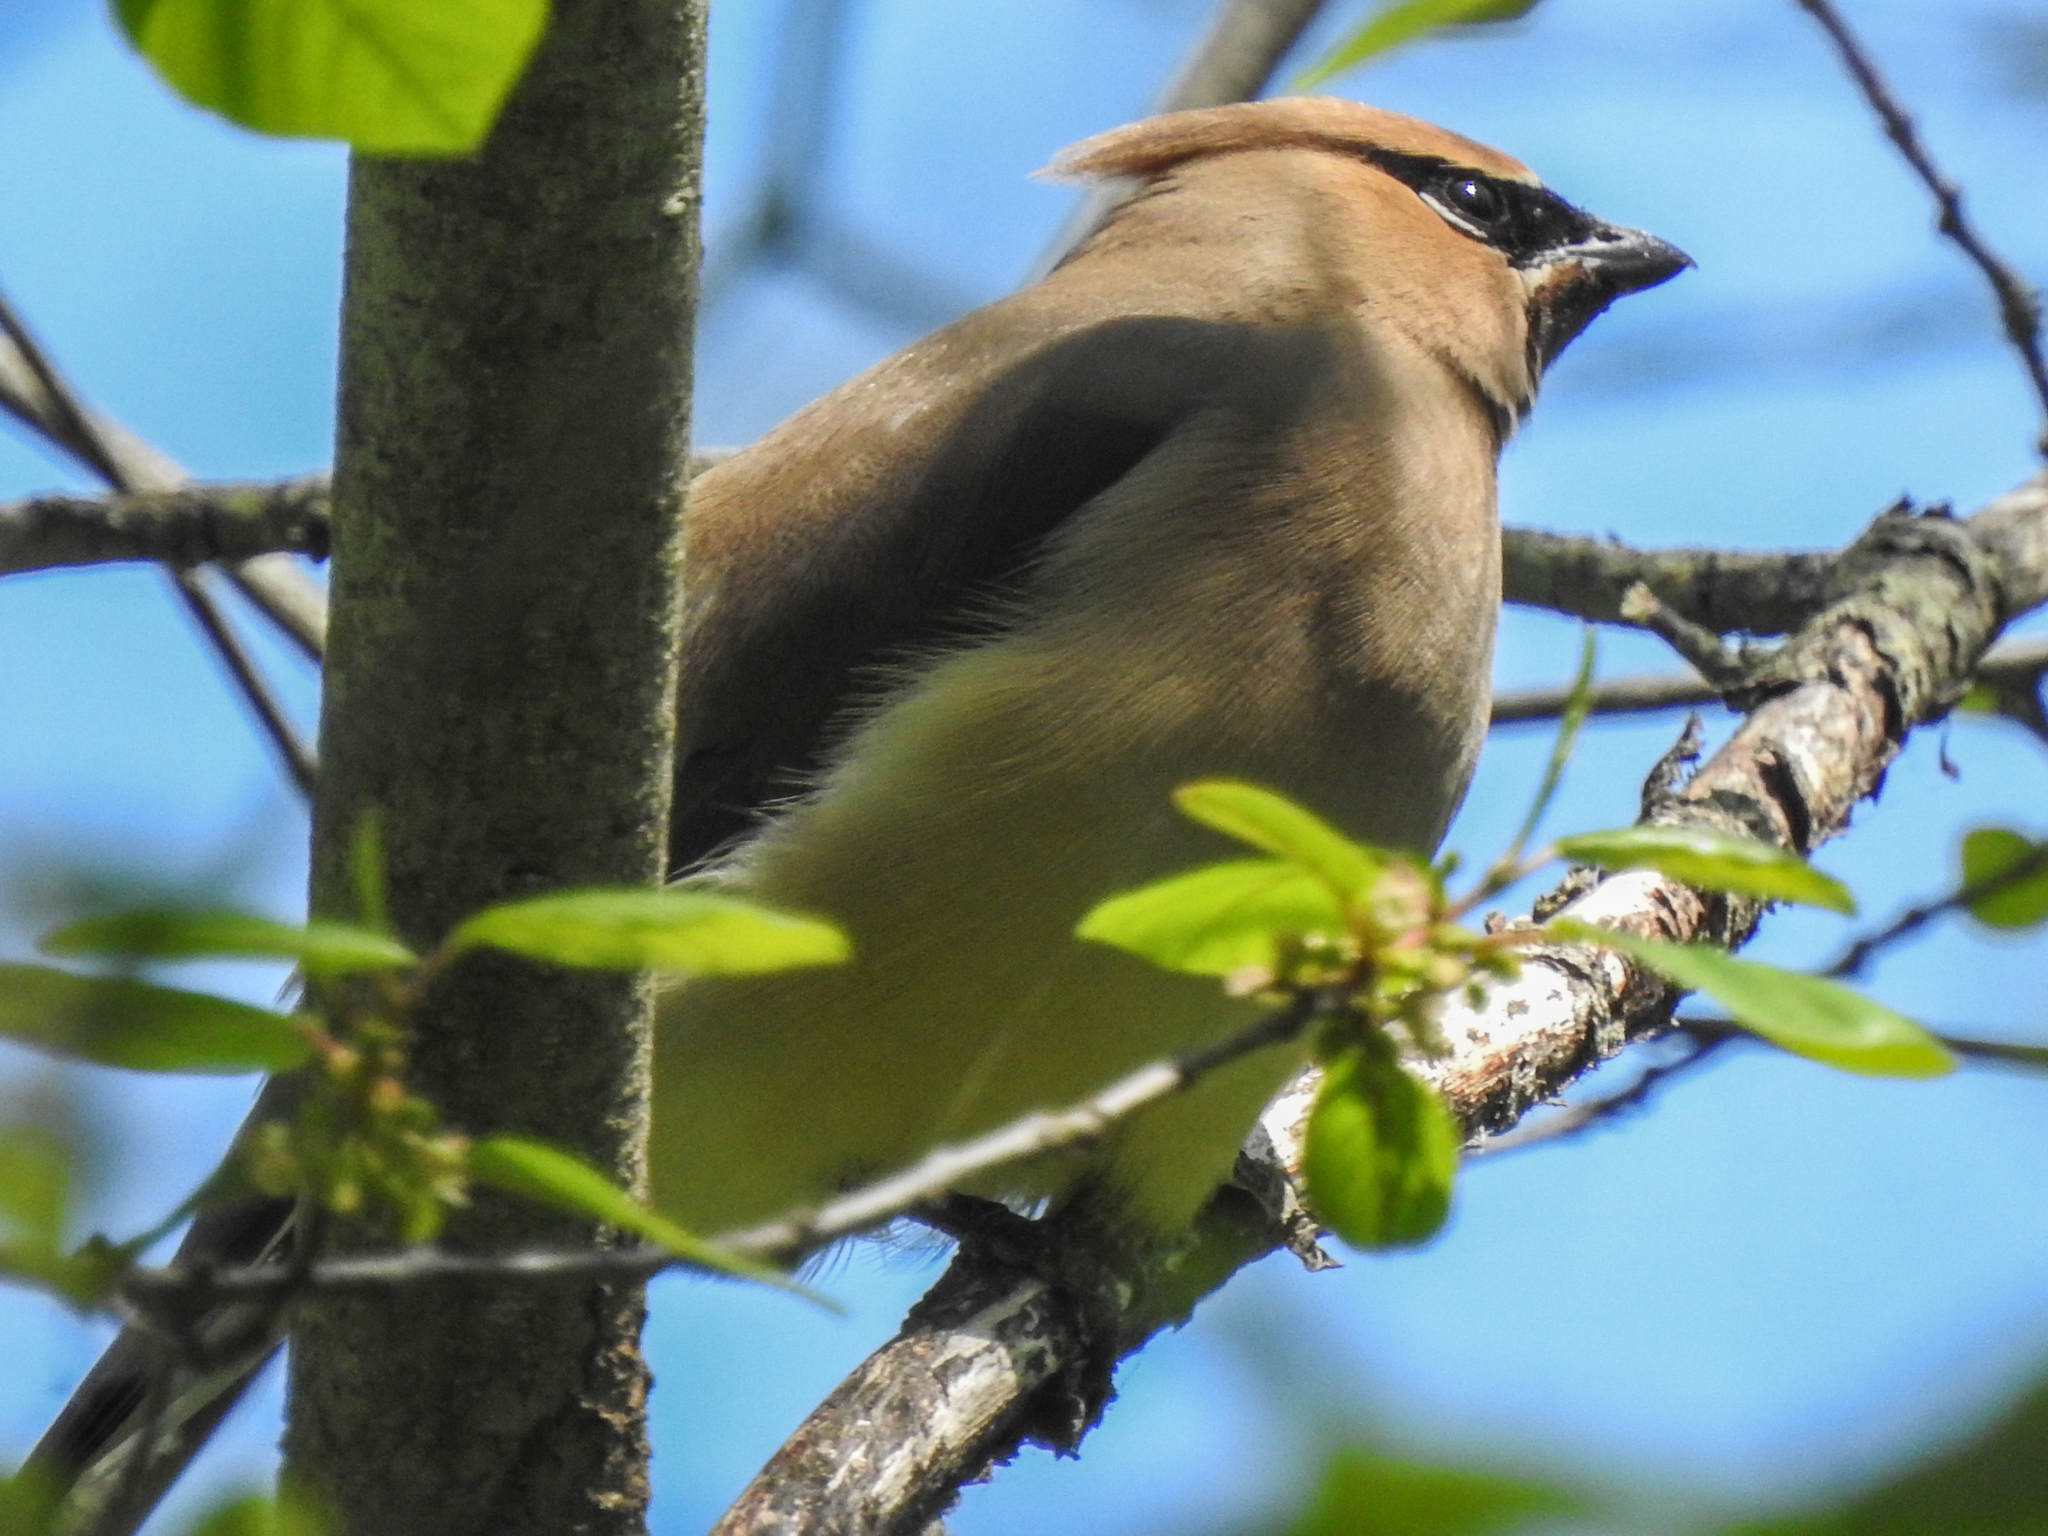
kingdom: Animalia
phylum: Chordata
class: Aves
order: Passeriformes
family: Bombycillidae
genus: Bombycilla
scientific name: Bombycilla cedrorum
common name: Cedar waxwing
